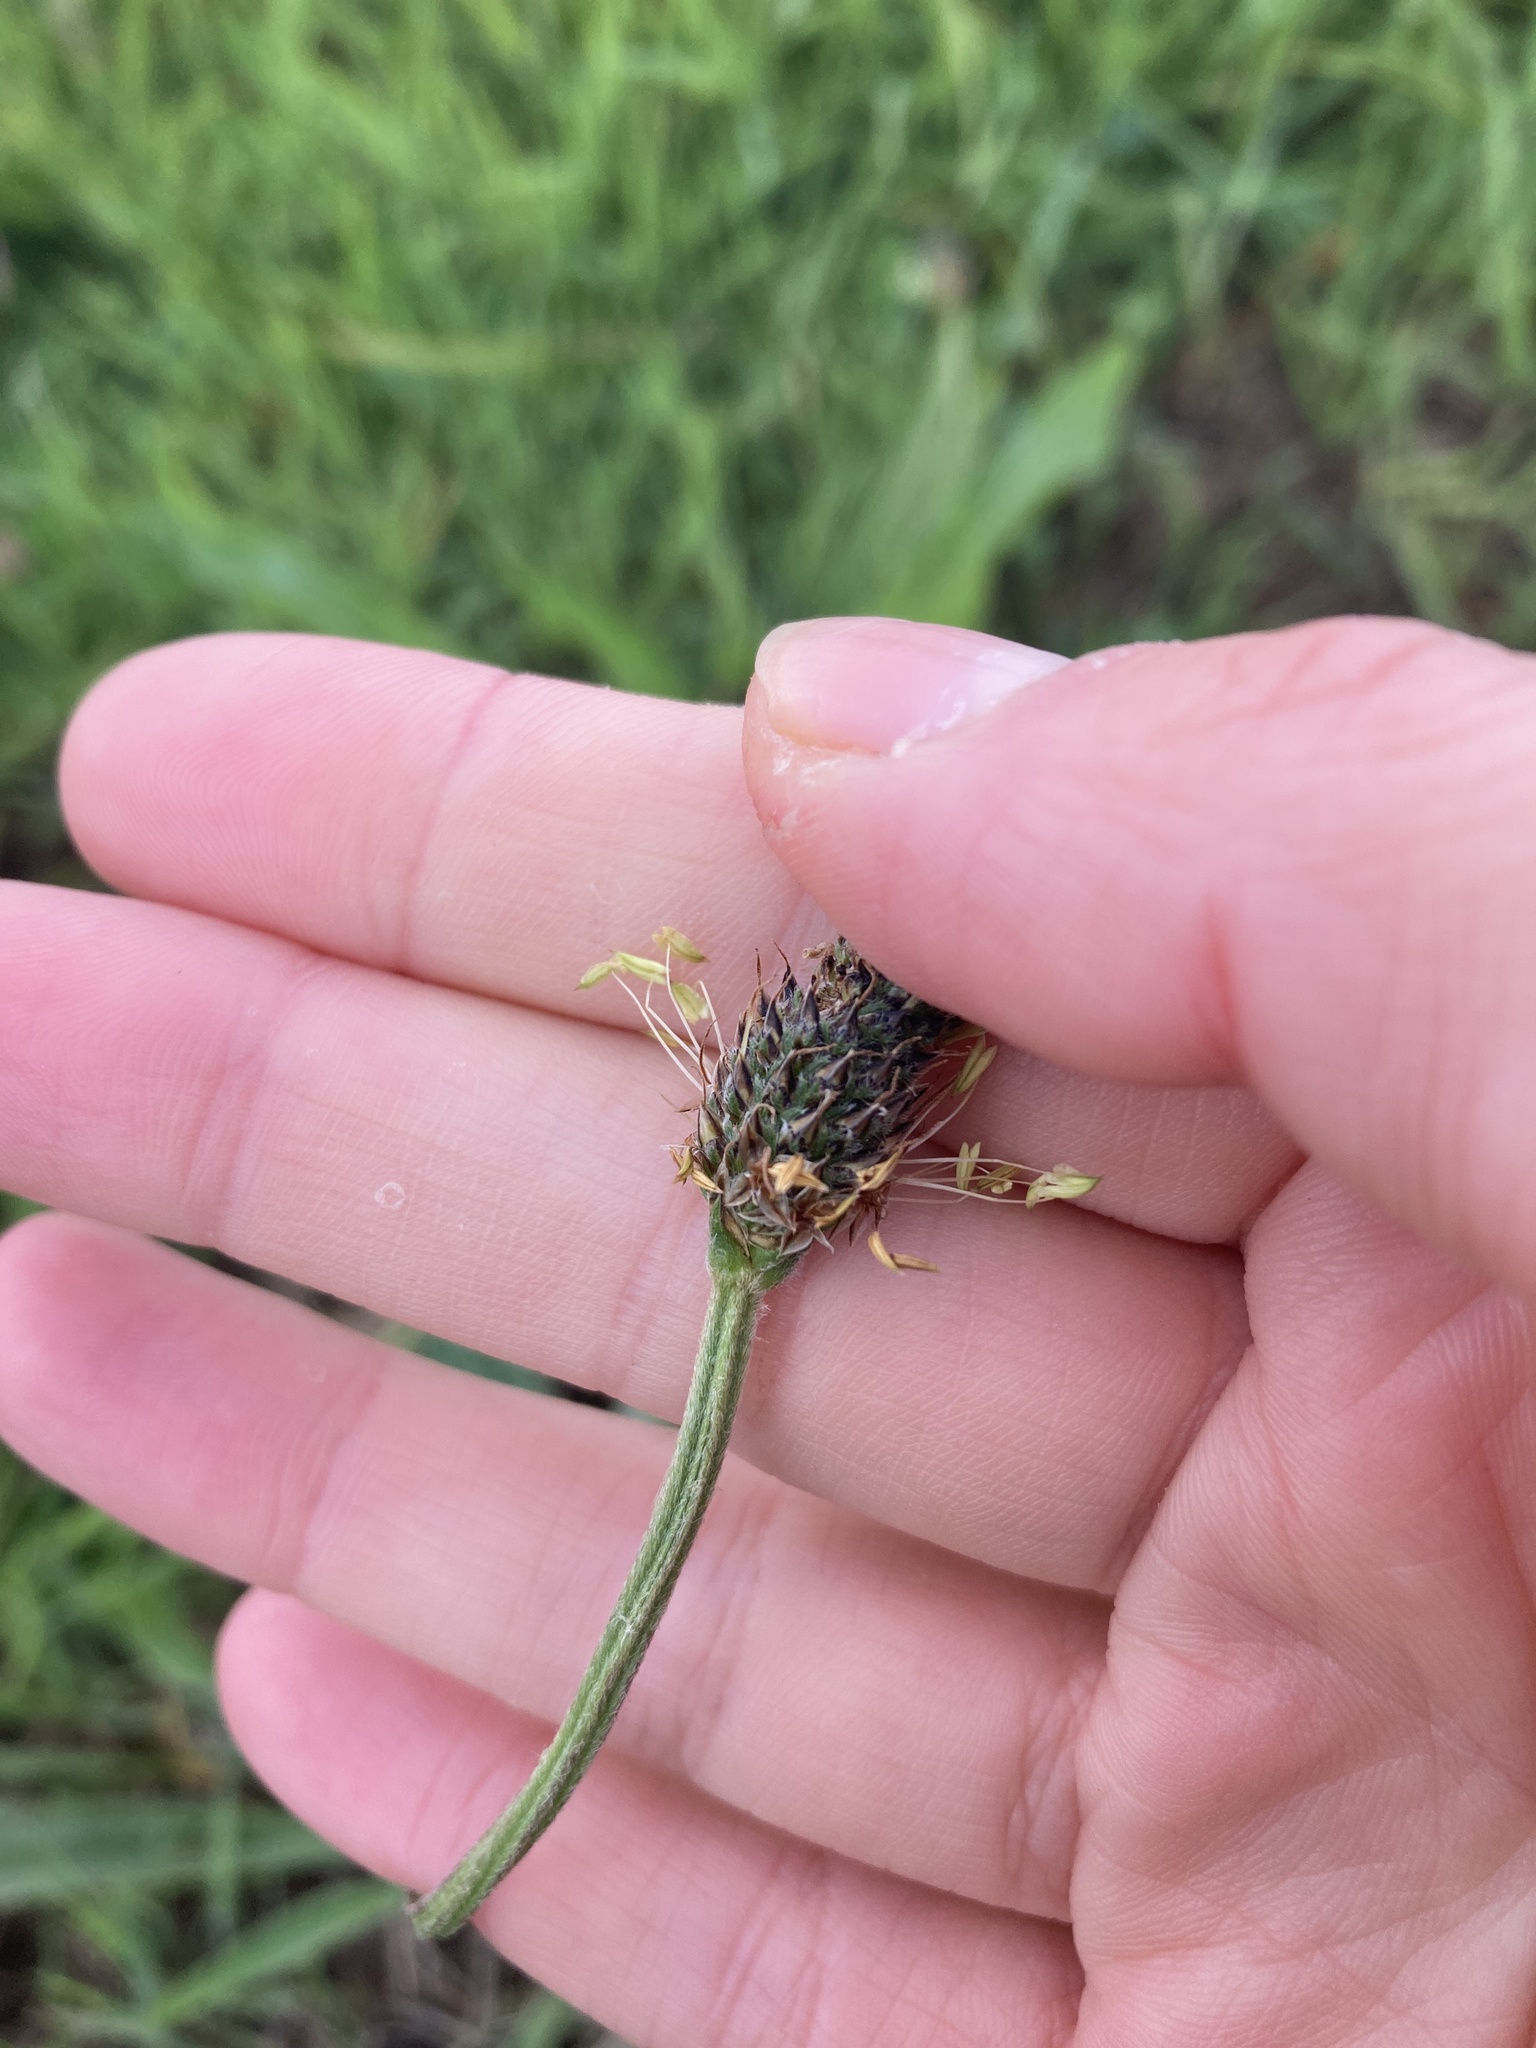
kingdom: Plantae
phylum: Tracheophyta
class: Magnoliopsida
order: Lamiales
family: Plantaginaceae
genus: Plantago
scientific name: Plantago lanceolata
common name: Ribwort plantain
